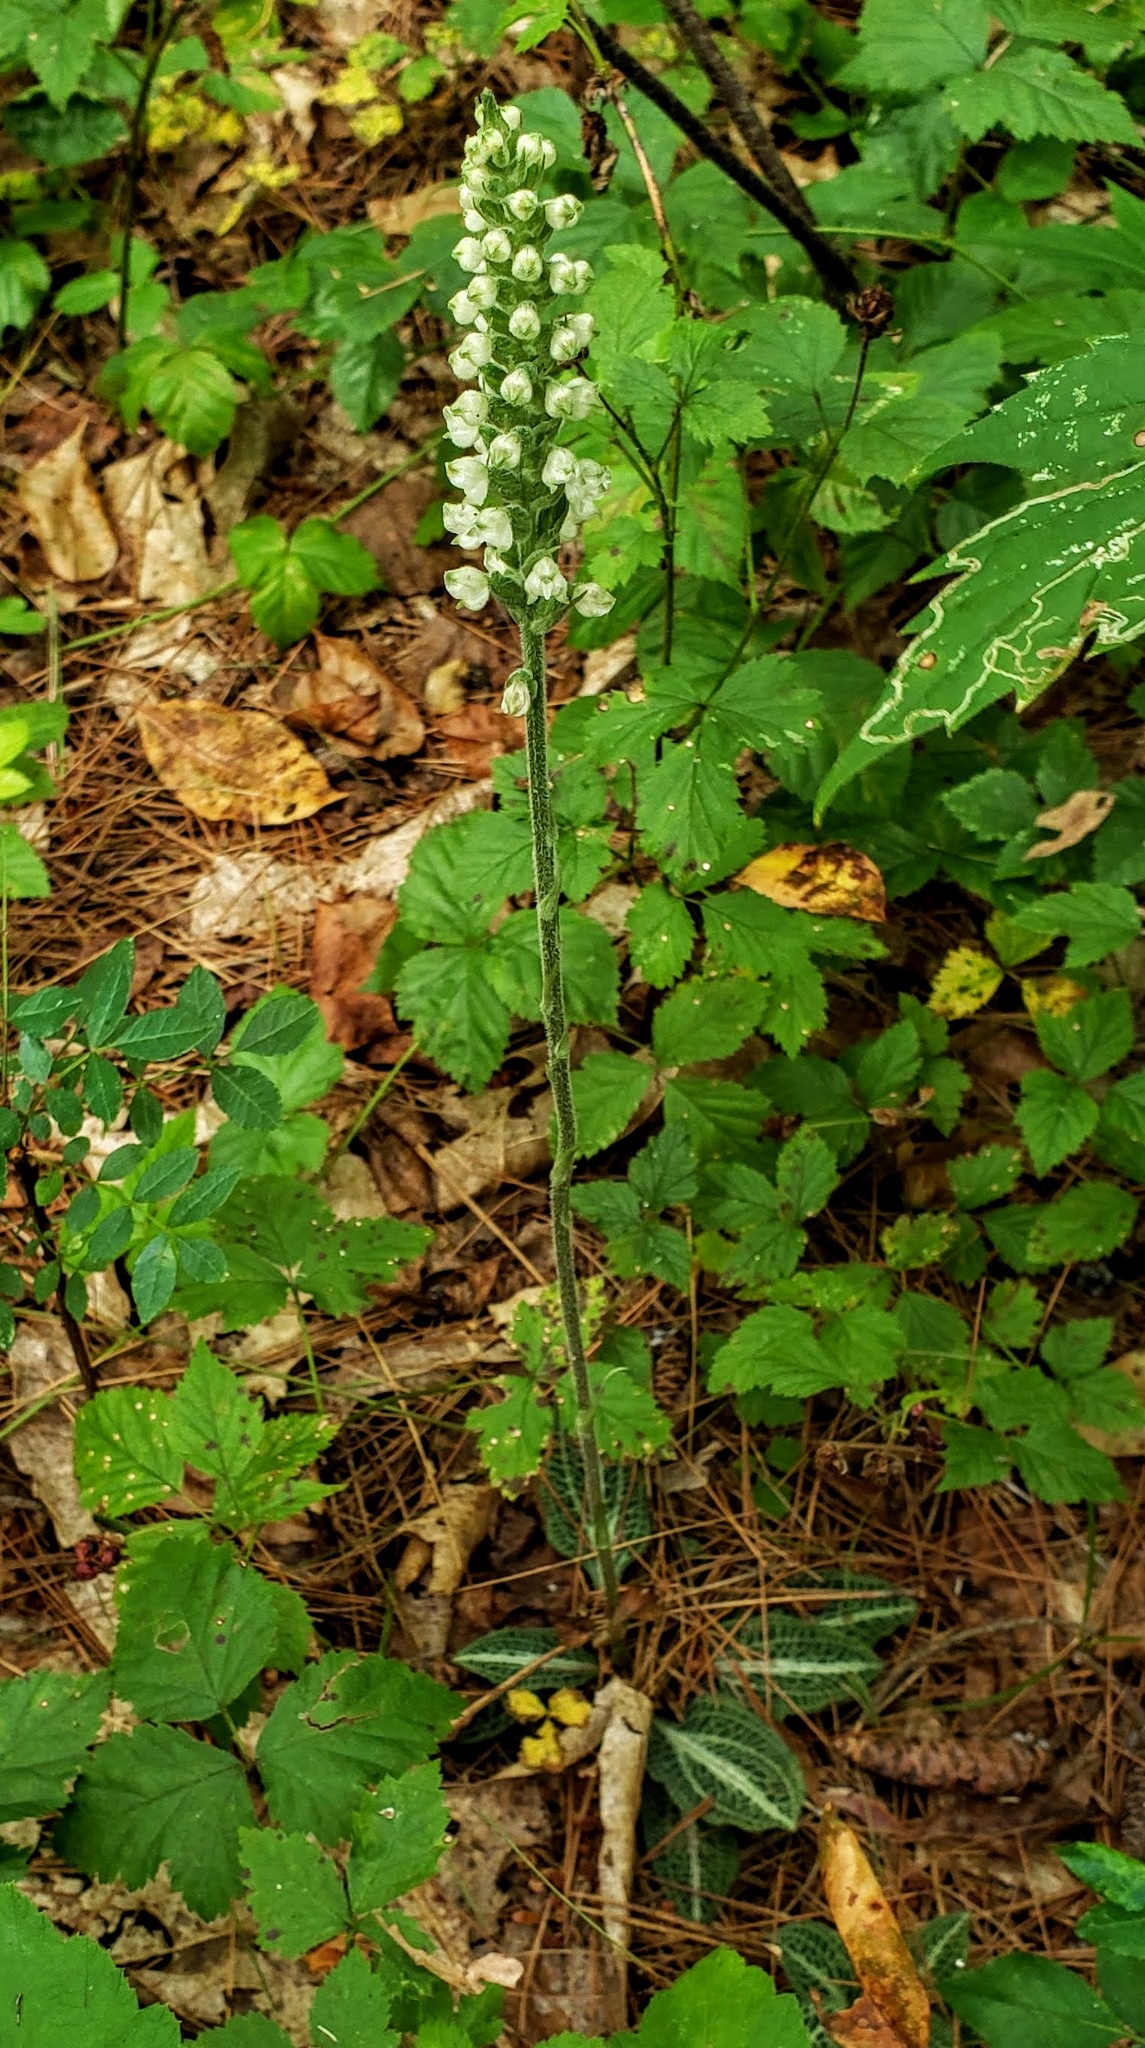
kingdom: Plantae
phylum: Tracheophyta
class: Liliopsida
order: Asparagales
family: Orchidaceae
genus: Goodyera
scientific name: Goodyera pubescens
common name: Downy rattlesnake-plantain
